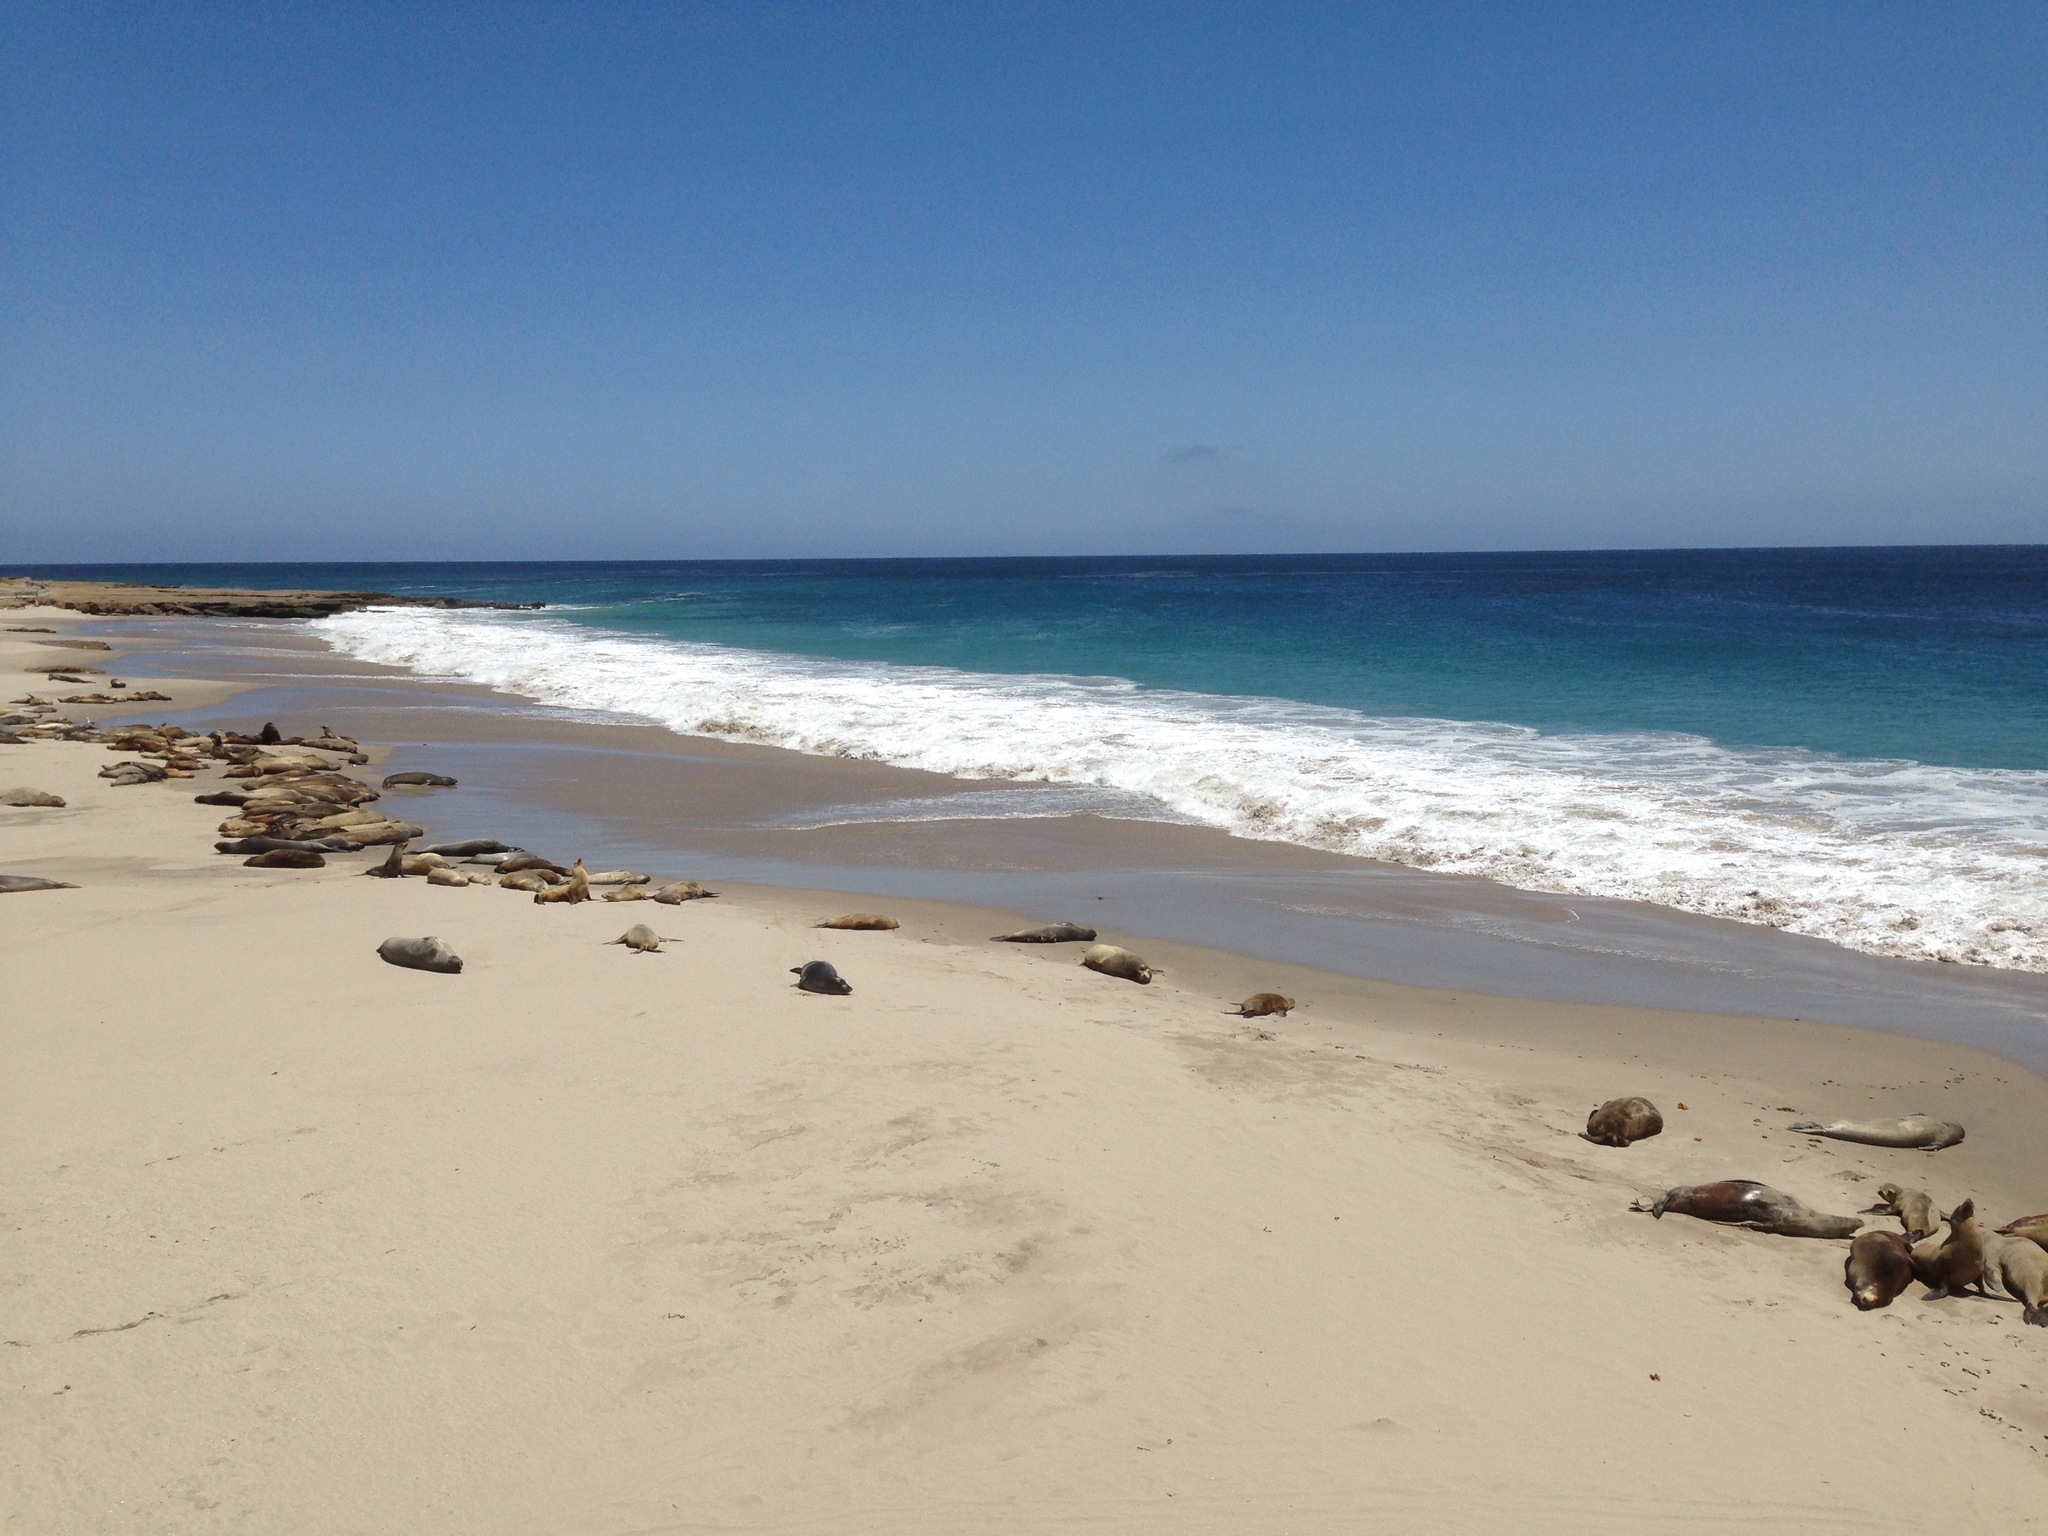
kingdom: Animalia
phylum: Chordata
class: Mammalia
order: Carnivora
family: Otariidae
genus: Zalophus
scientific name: Zalophus californianus
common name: California sea lion
